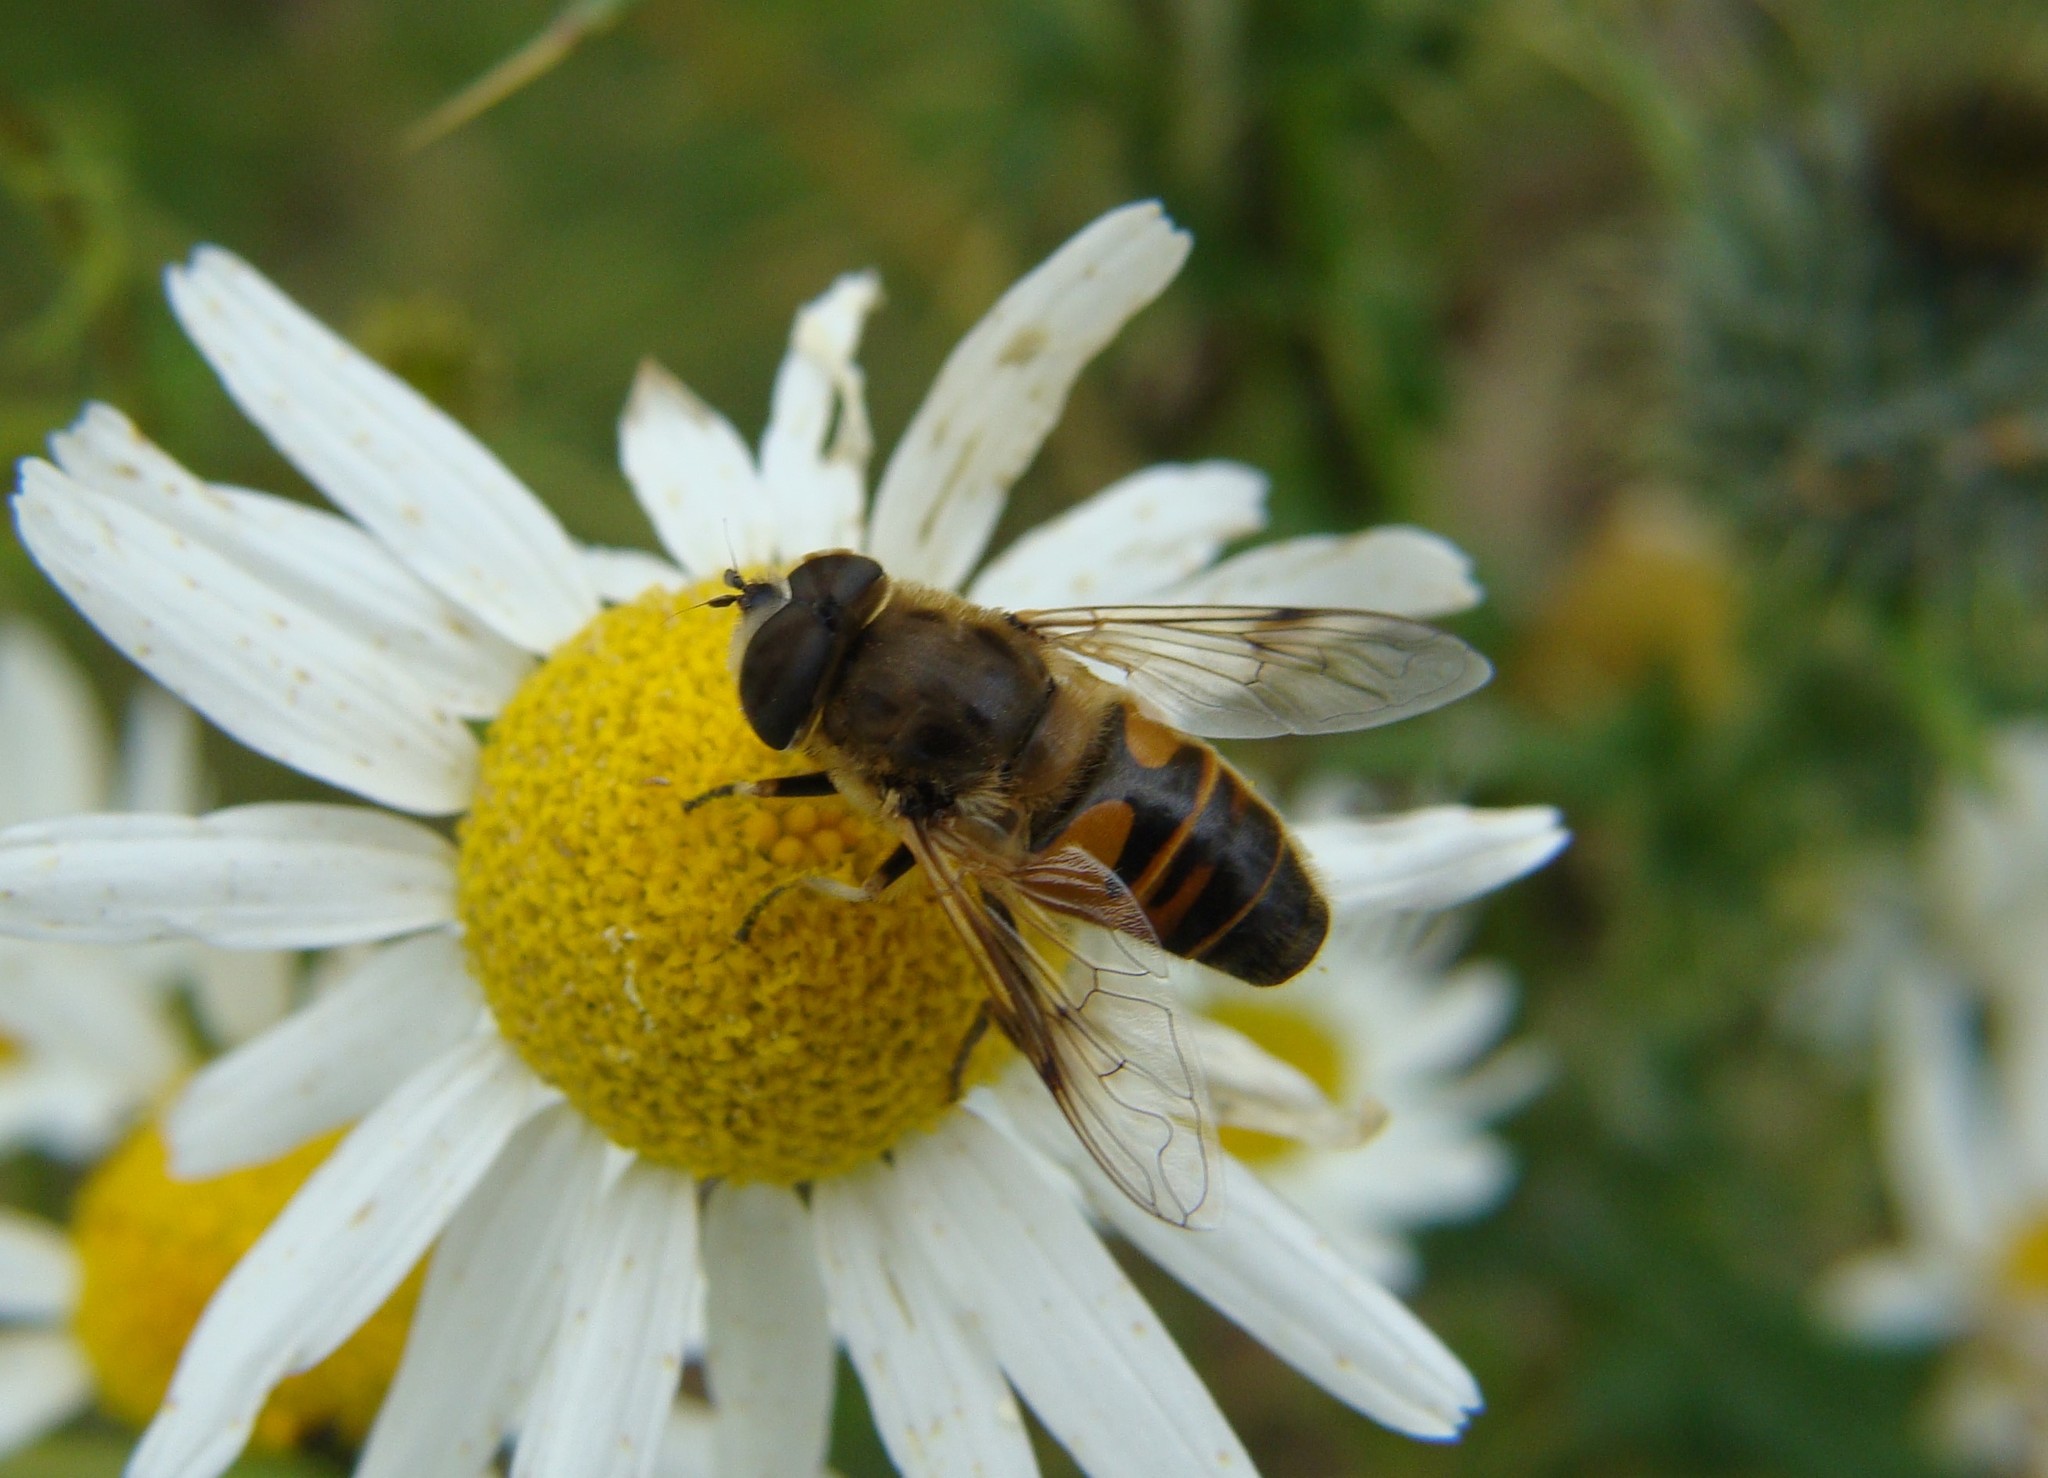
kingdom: Animalia
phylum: Arthropoda
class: Insecta
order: Diptera
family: Syrphidae
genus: Eristalis
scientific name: Eristalis tenax
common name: Drone fly
